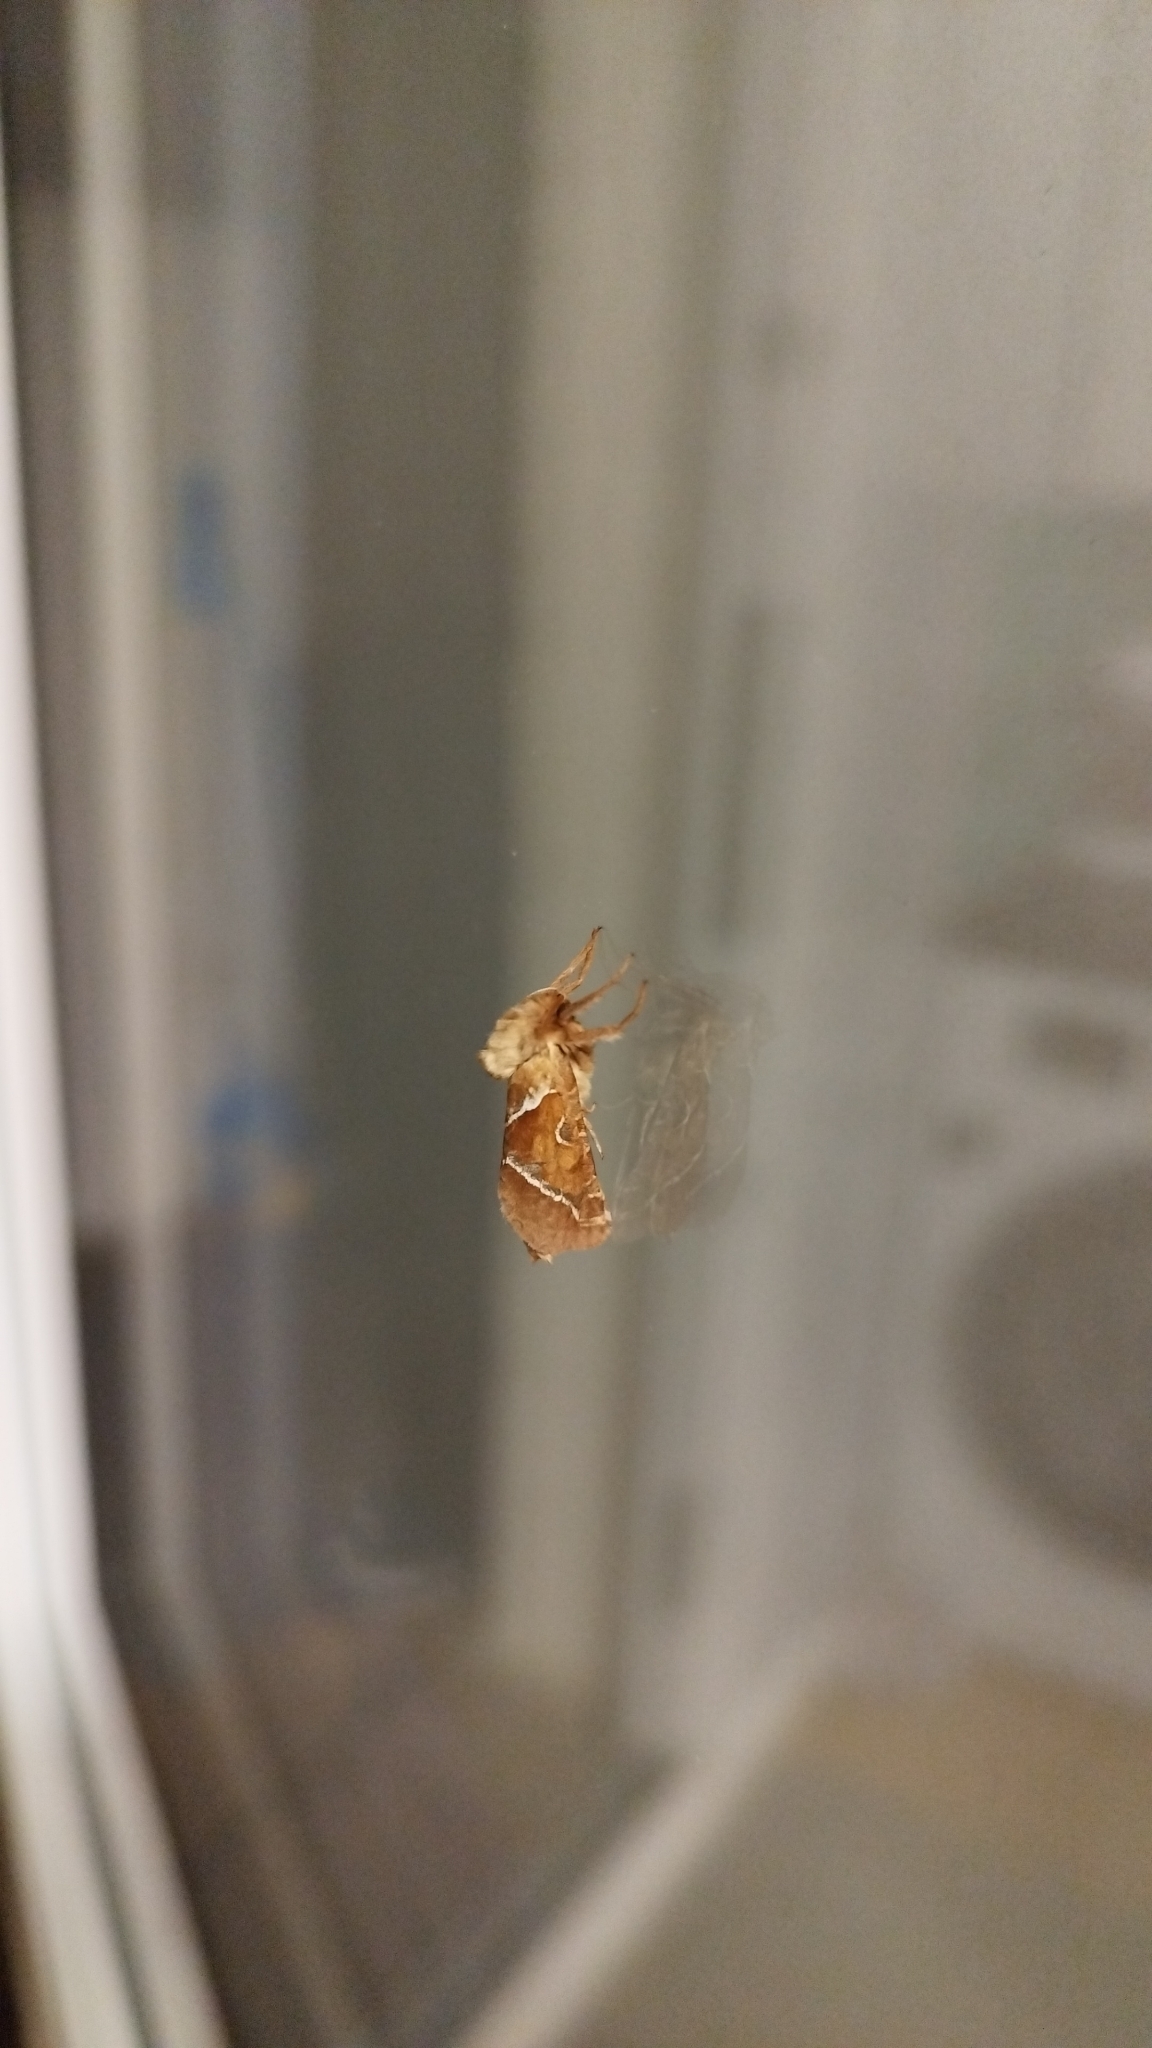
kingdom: Animalia
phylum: Arthropoda
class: Insecta
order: Lepidoptera
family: Hepialidae
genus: Triodia
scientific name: Triodia sylvina
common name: Orange swift
